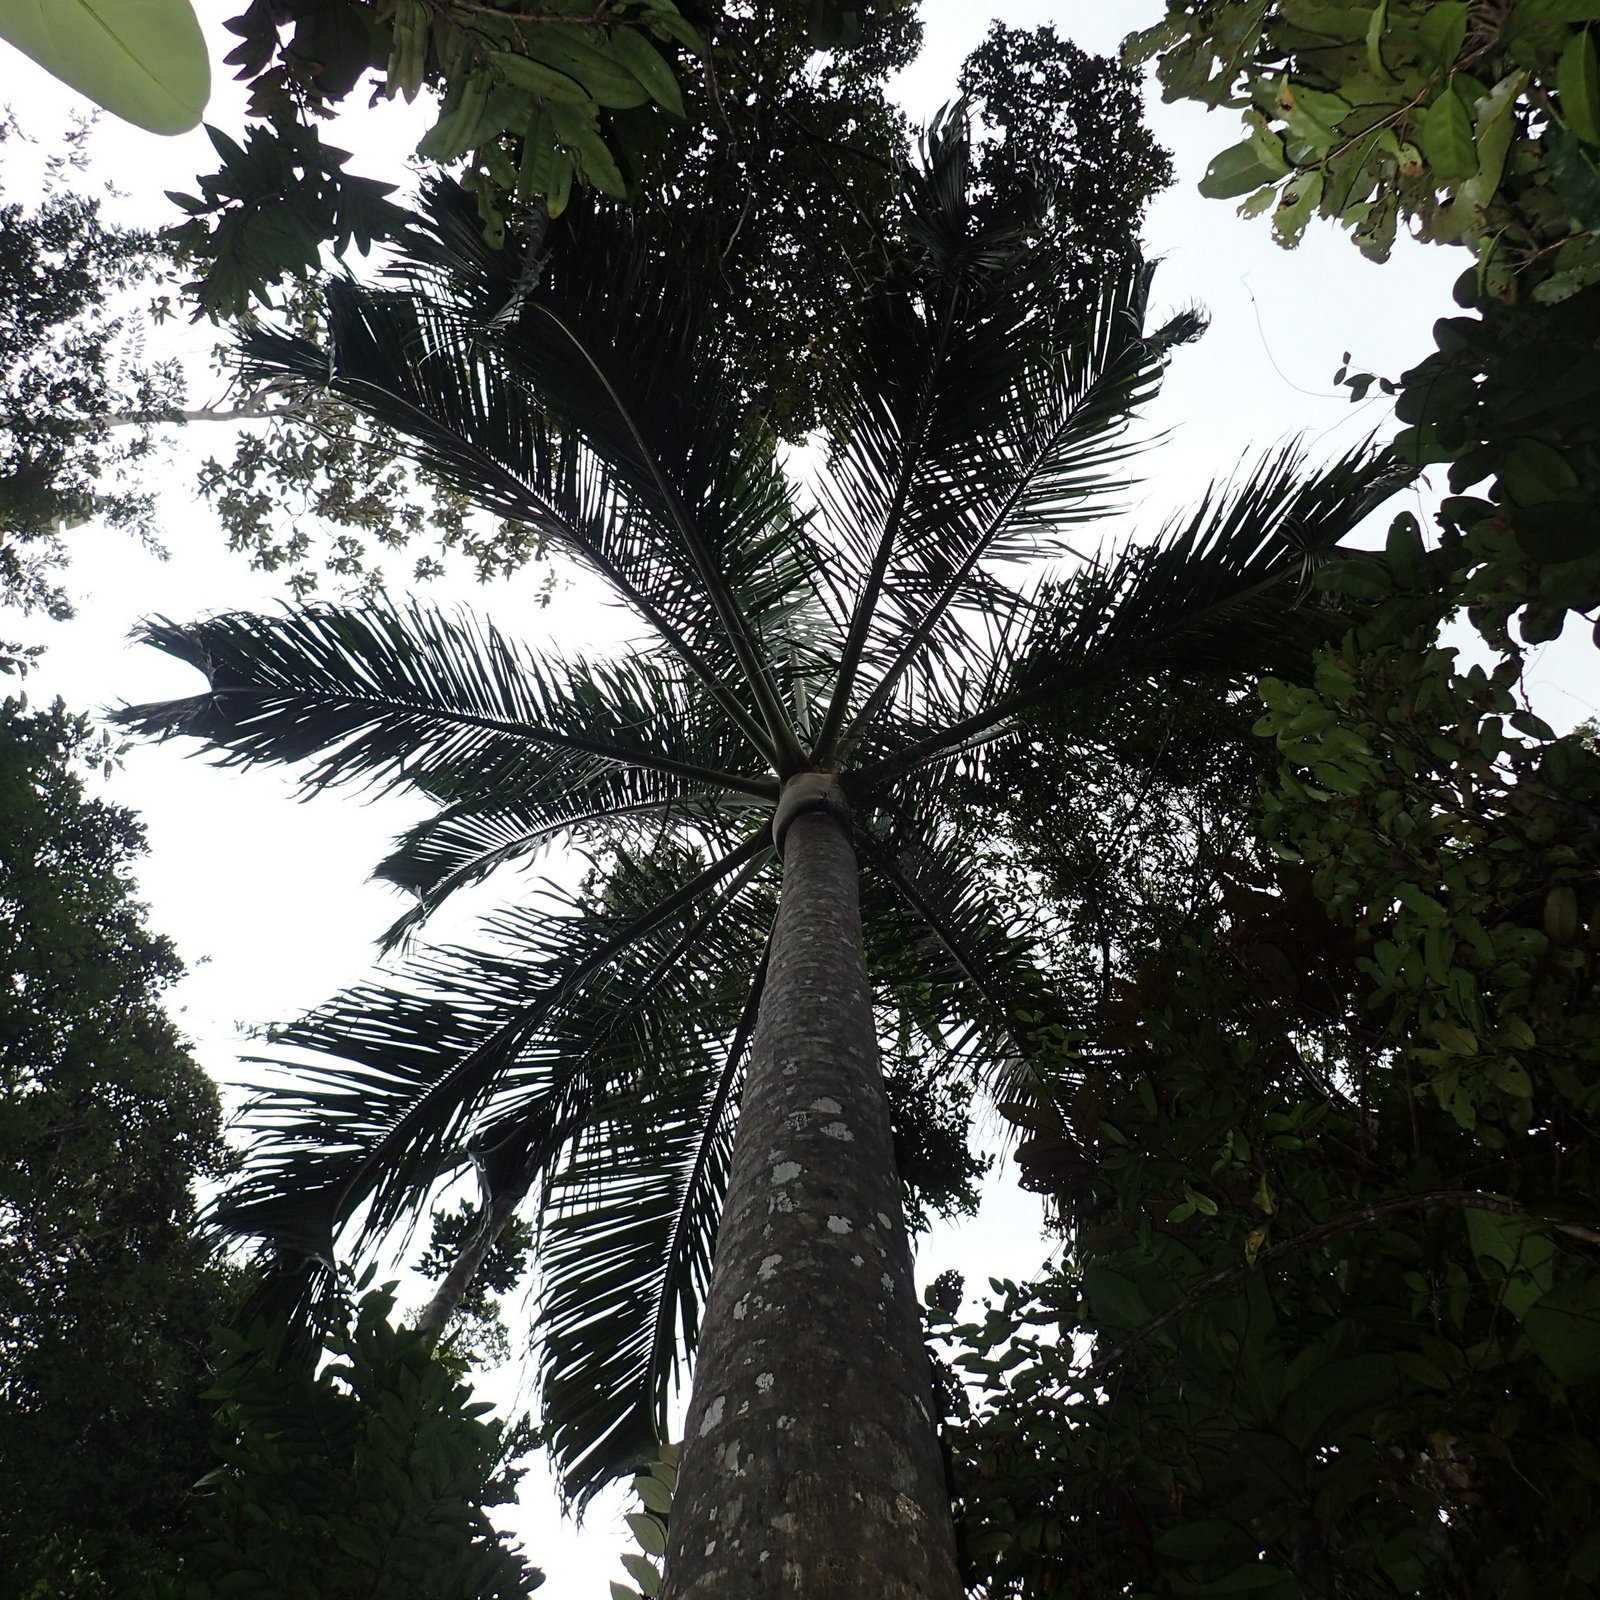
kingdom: Plantae
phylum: Tracheophyta
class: Liliopsida
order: Arecales
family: Arecaceae
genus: Dypsis
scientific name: Dypsis carlsmithii
